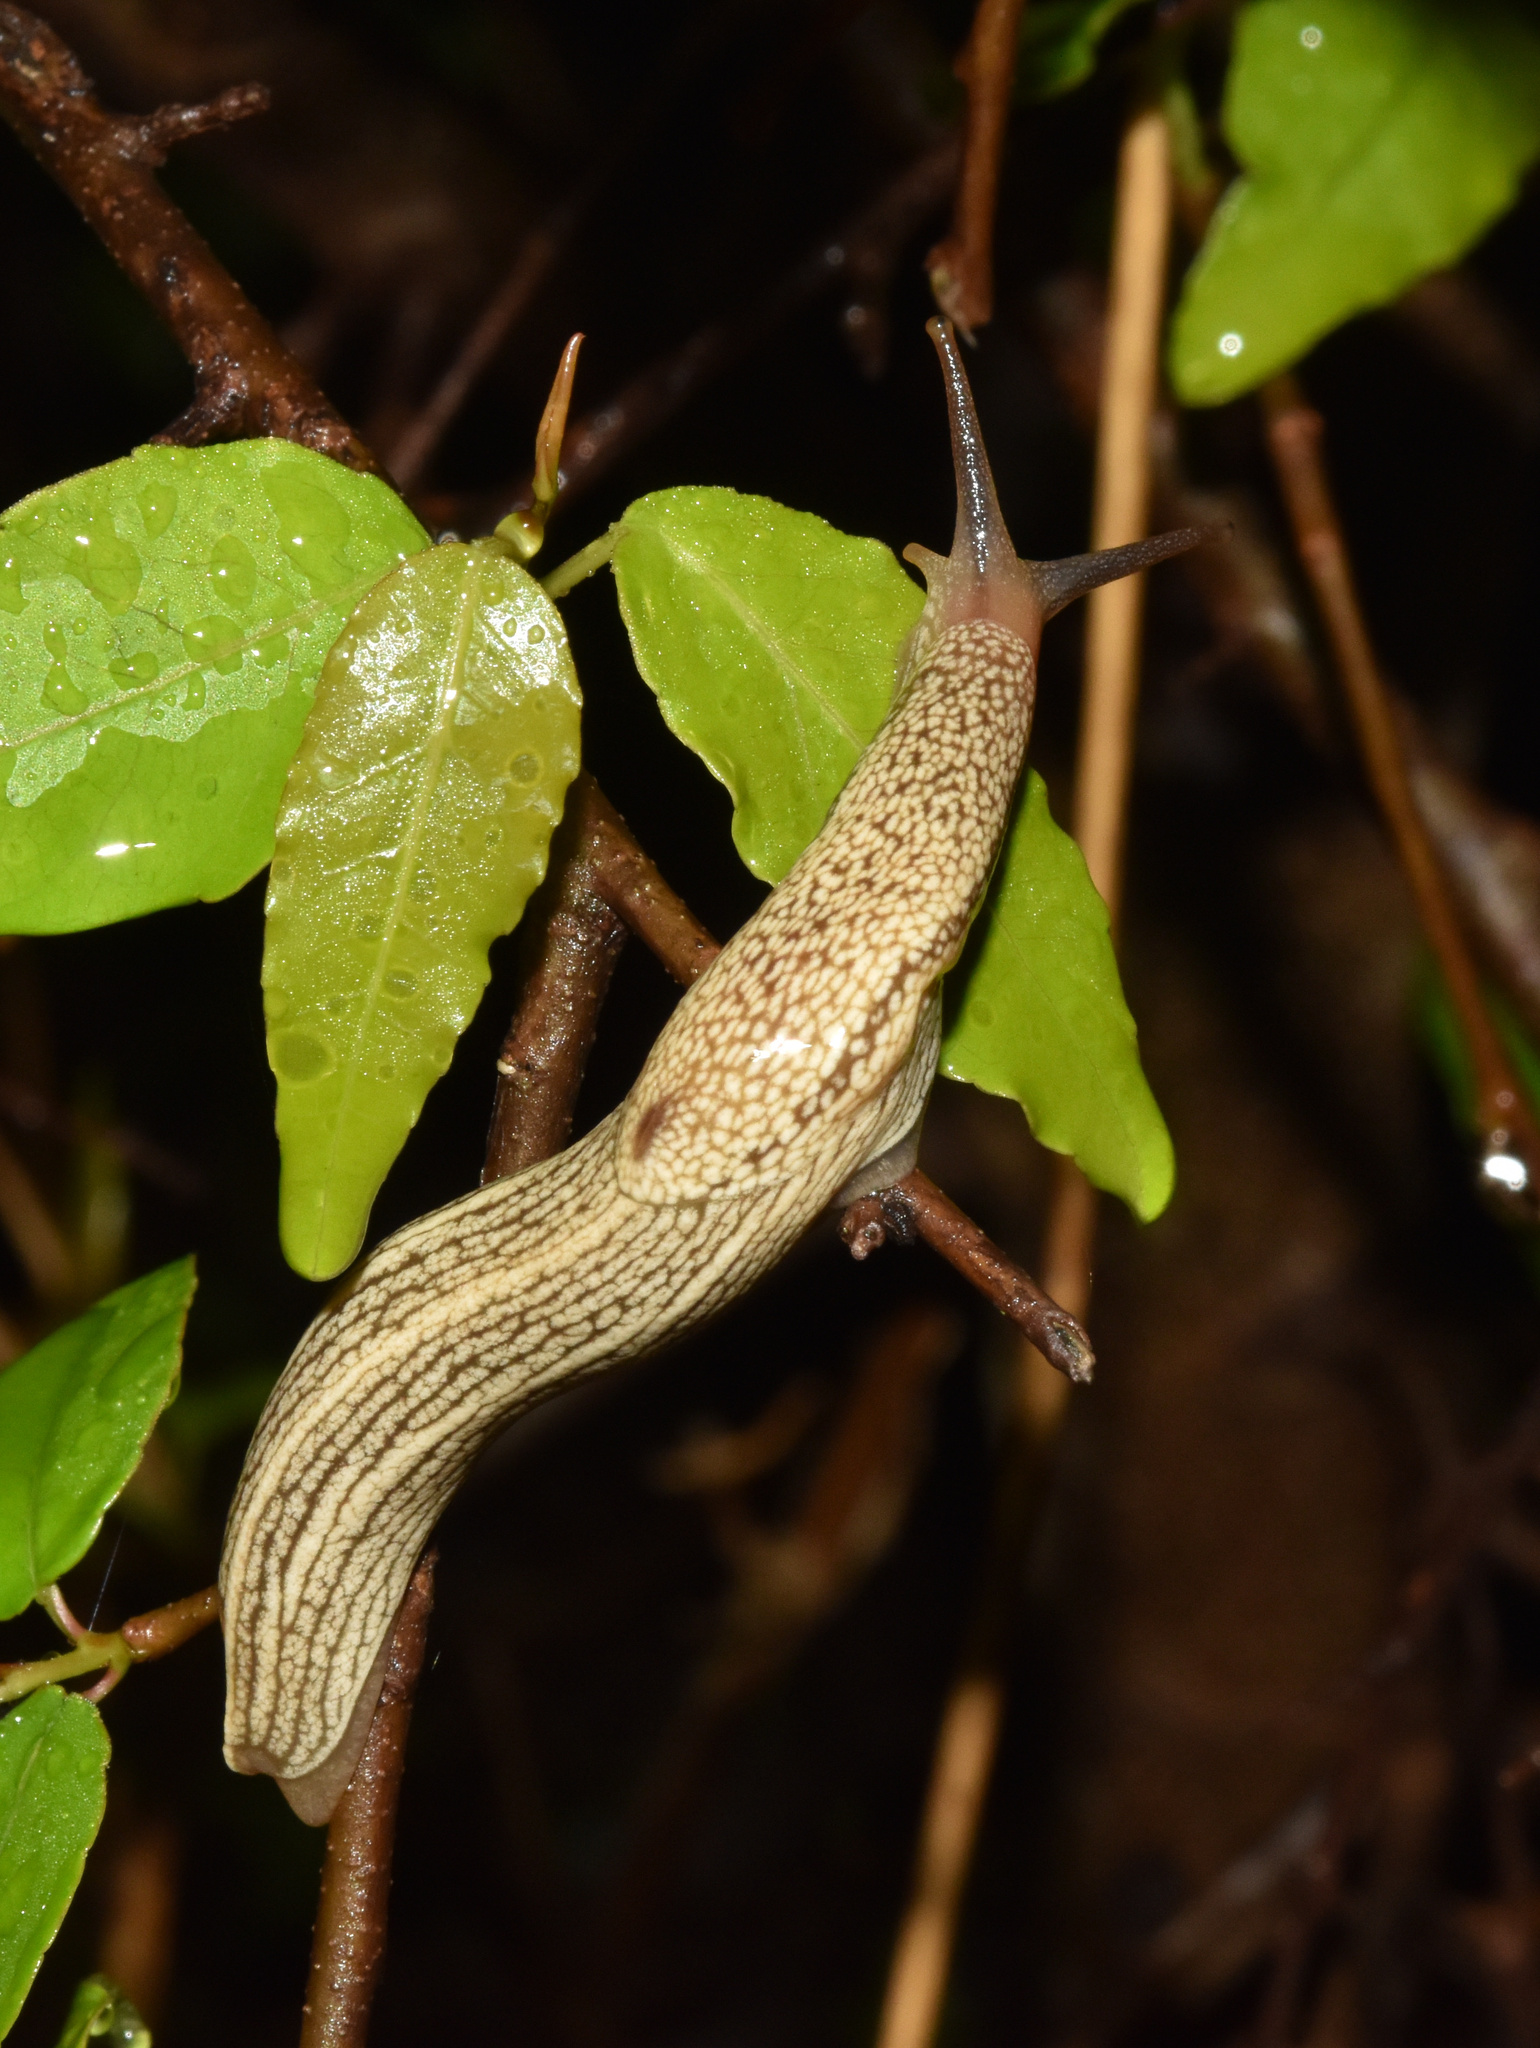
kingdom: Animalia
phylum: Mollusca
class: Gastropoda
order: Stylommatophora
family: Urocyclidae
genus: Elisolimax
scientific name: Elisolimax flavescens
